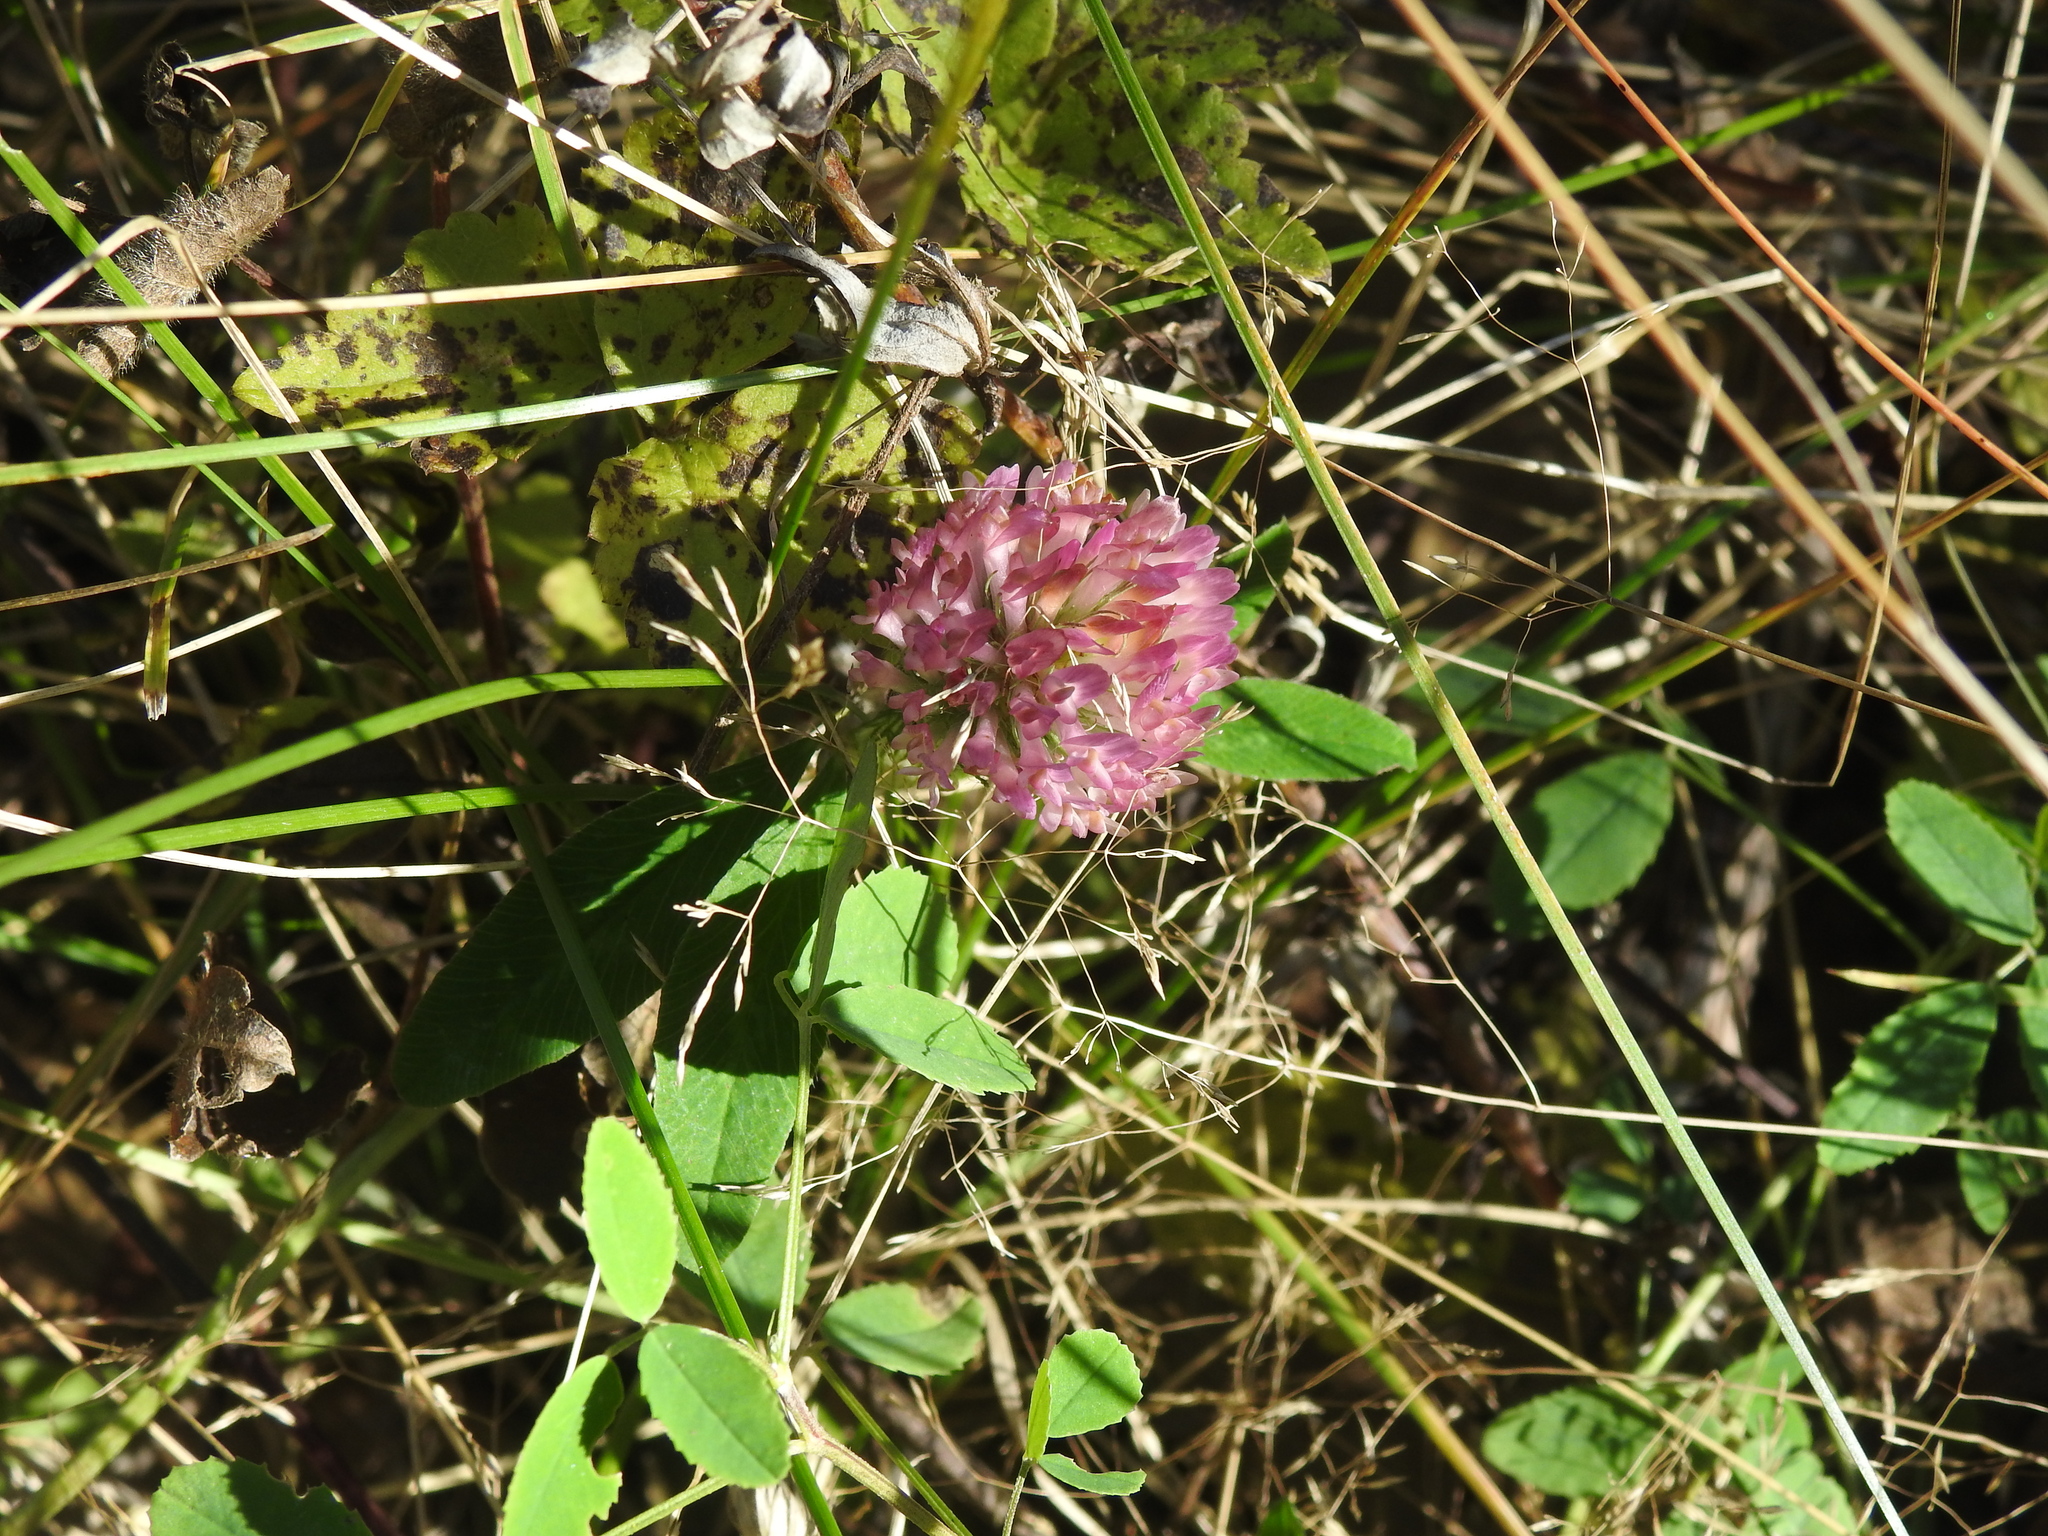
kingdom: Plantae
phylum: Tracheophyta
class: Magnoliopsida
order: Fabales
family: Fabaceae
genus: Trifolium
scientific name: Trifolium pratense
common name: Red clover
